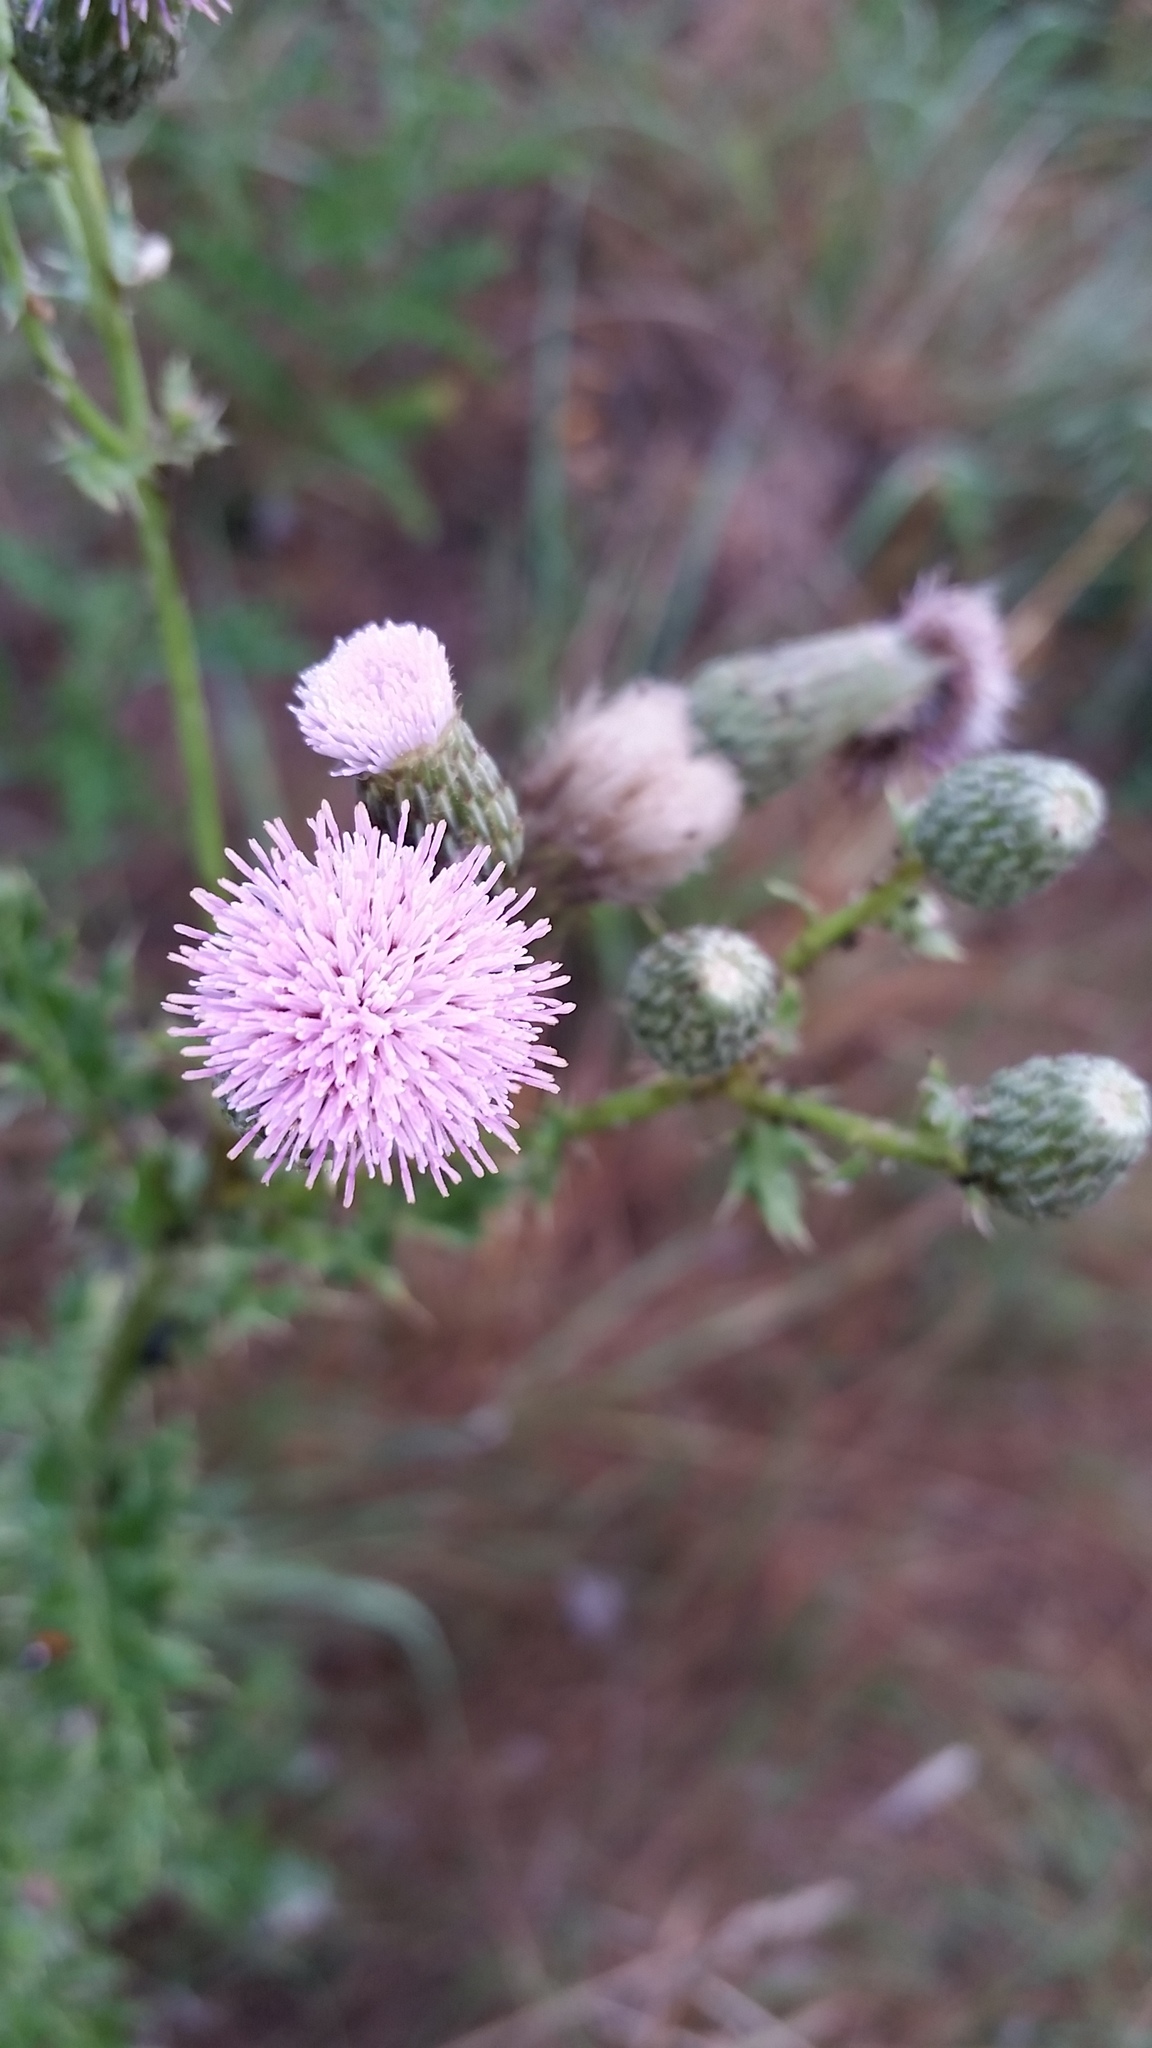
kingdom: Plantae
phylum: Tracheophyta
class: Magnoliopsida
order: Asterales
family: Asteraceae
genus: Cirsium
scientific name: Cirsium arvense
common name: Creeping thistle
